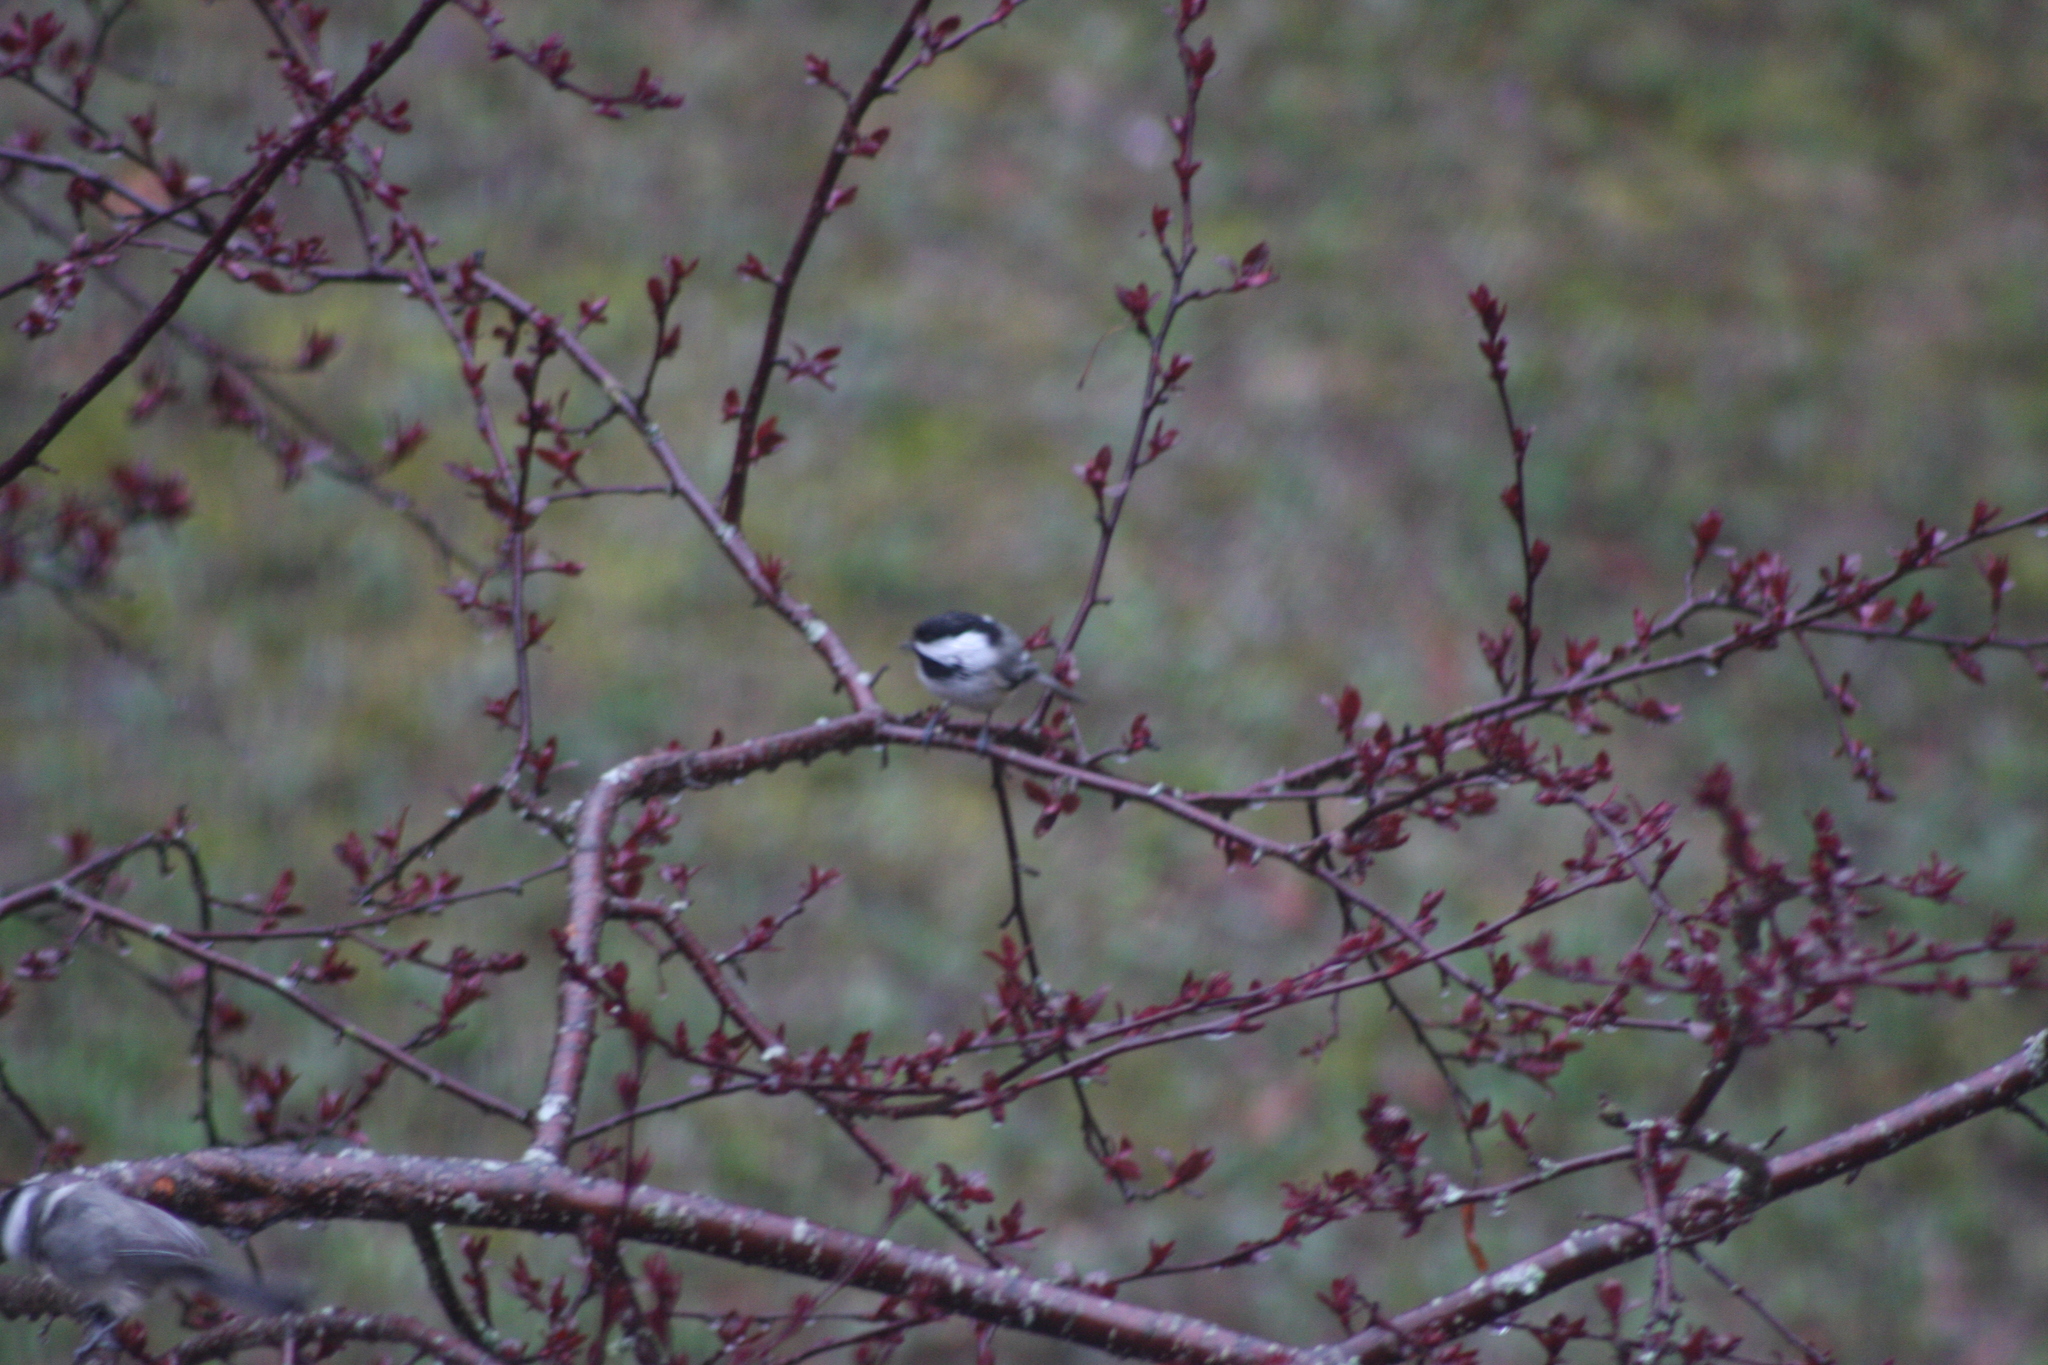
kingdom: Animalia
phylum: Chordata
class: Aves
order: Passeriformes
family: Paridae
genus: Poecile
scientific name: Poecile atricapillus
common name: Black-capped chickadee
